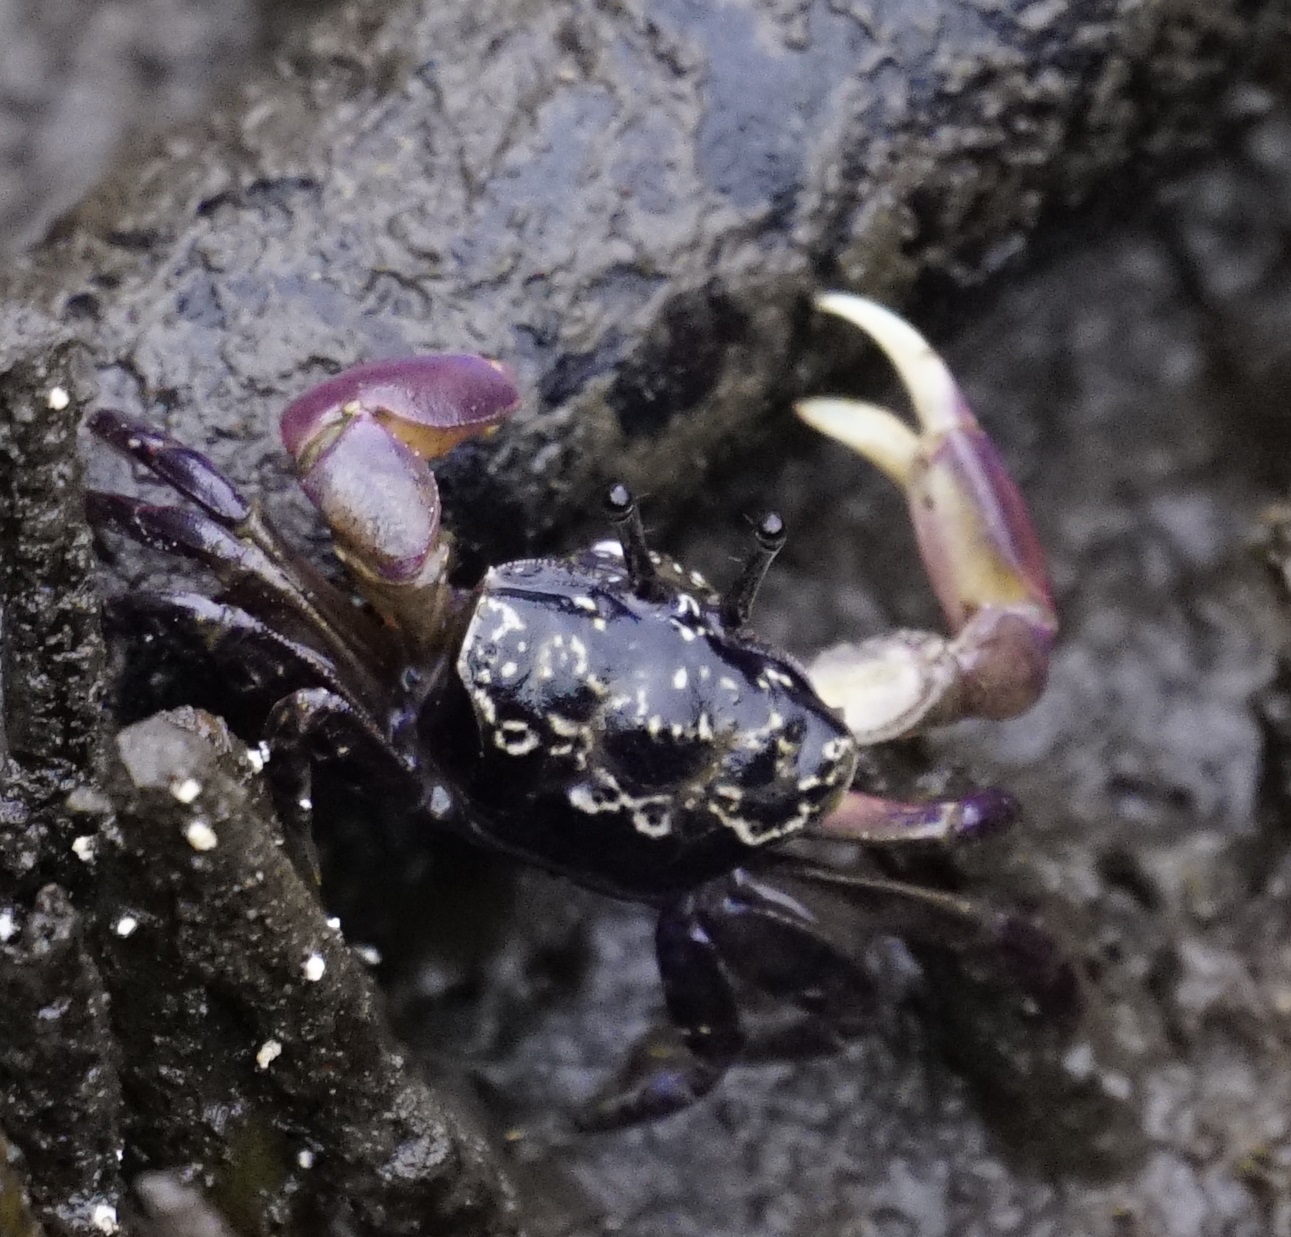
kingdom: Animalia
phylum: Arthropoda
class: Malacostraca
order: Decapoda
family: Heloeciidae
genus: Heloecius
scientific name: Heloecius cordiformis
